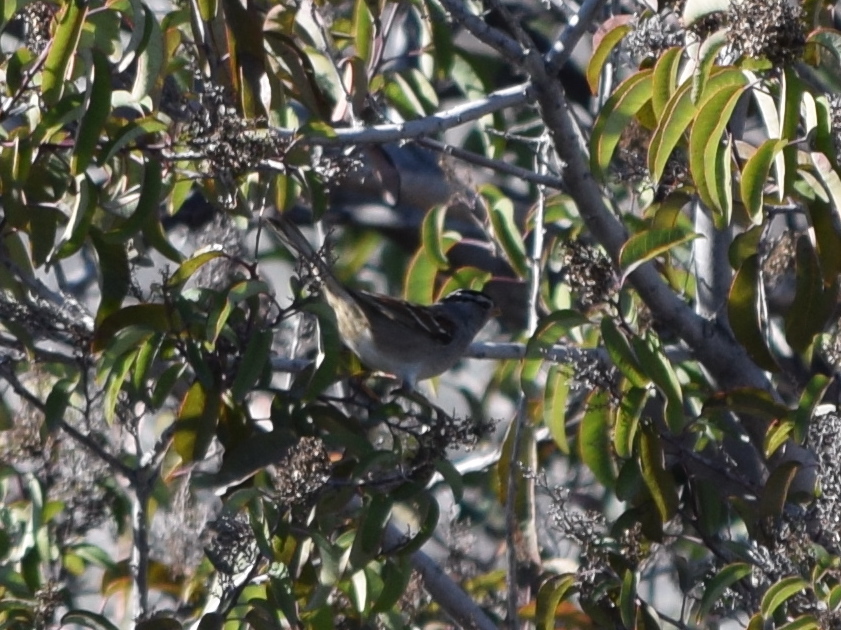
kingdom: Animalia
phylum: Chordata
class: Aves
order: Passeriformes
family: Passerellidae
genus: Zonotrichia
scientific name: Zonotrichia leucophrys
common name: White-crowned sparrow
